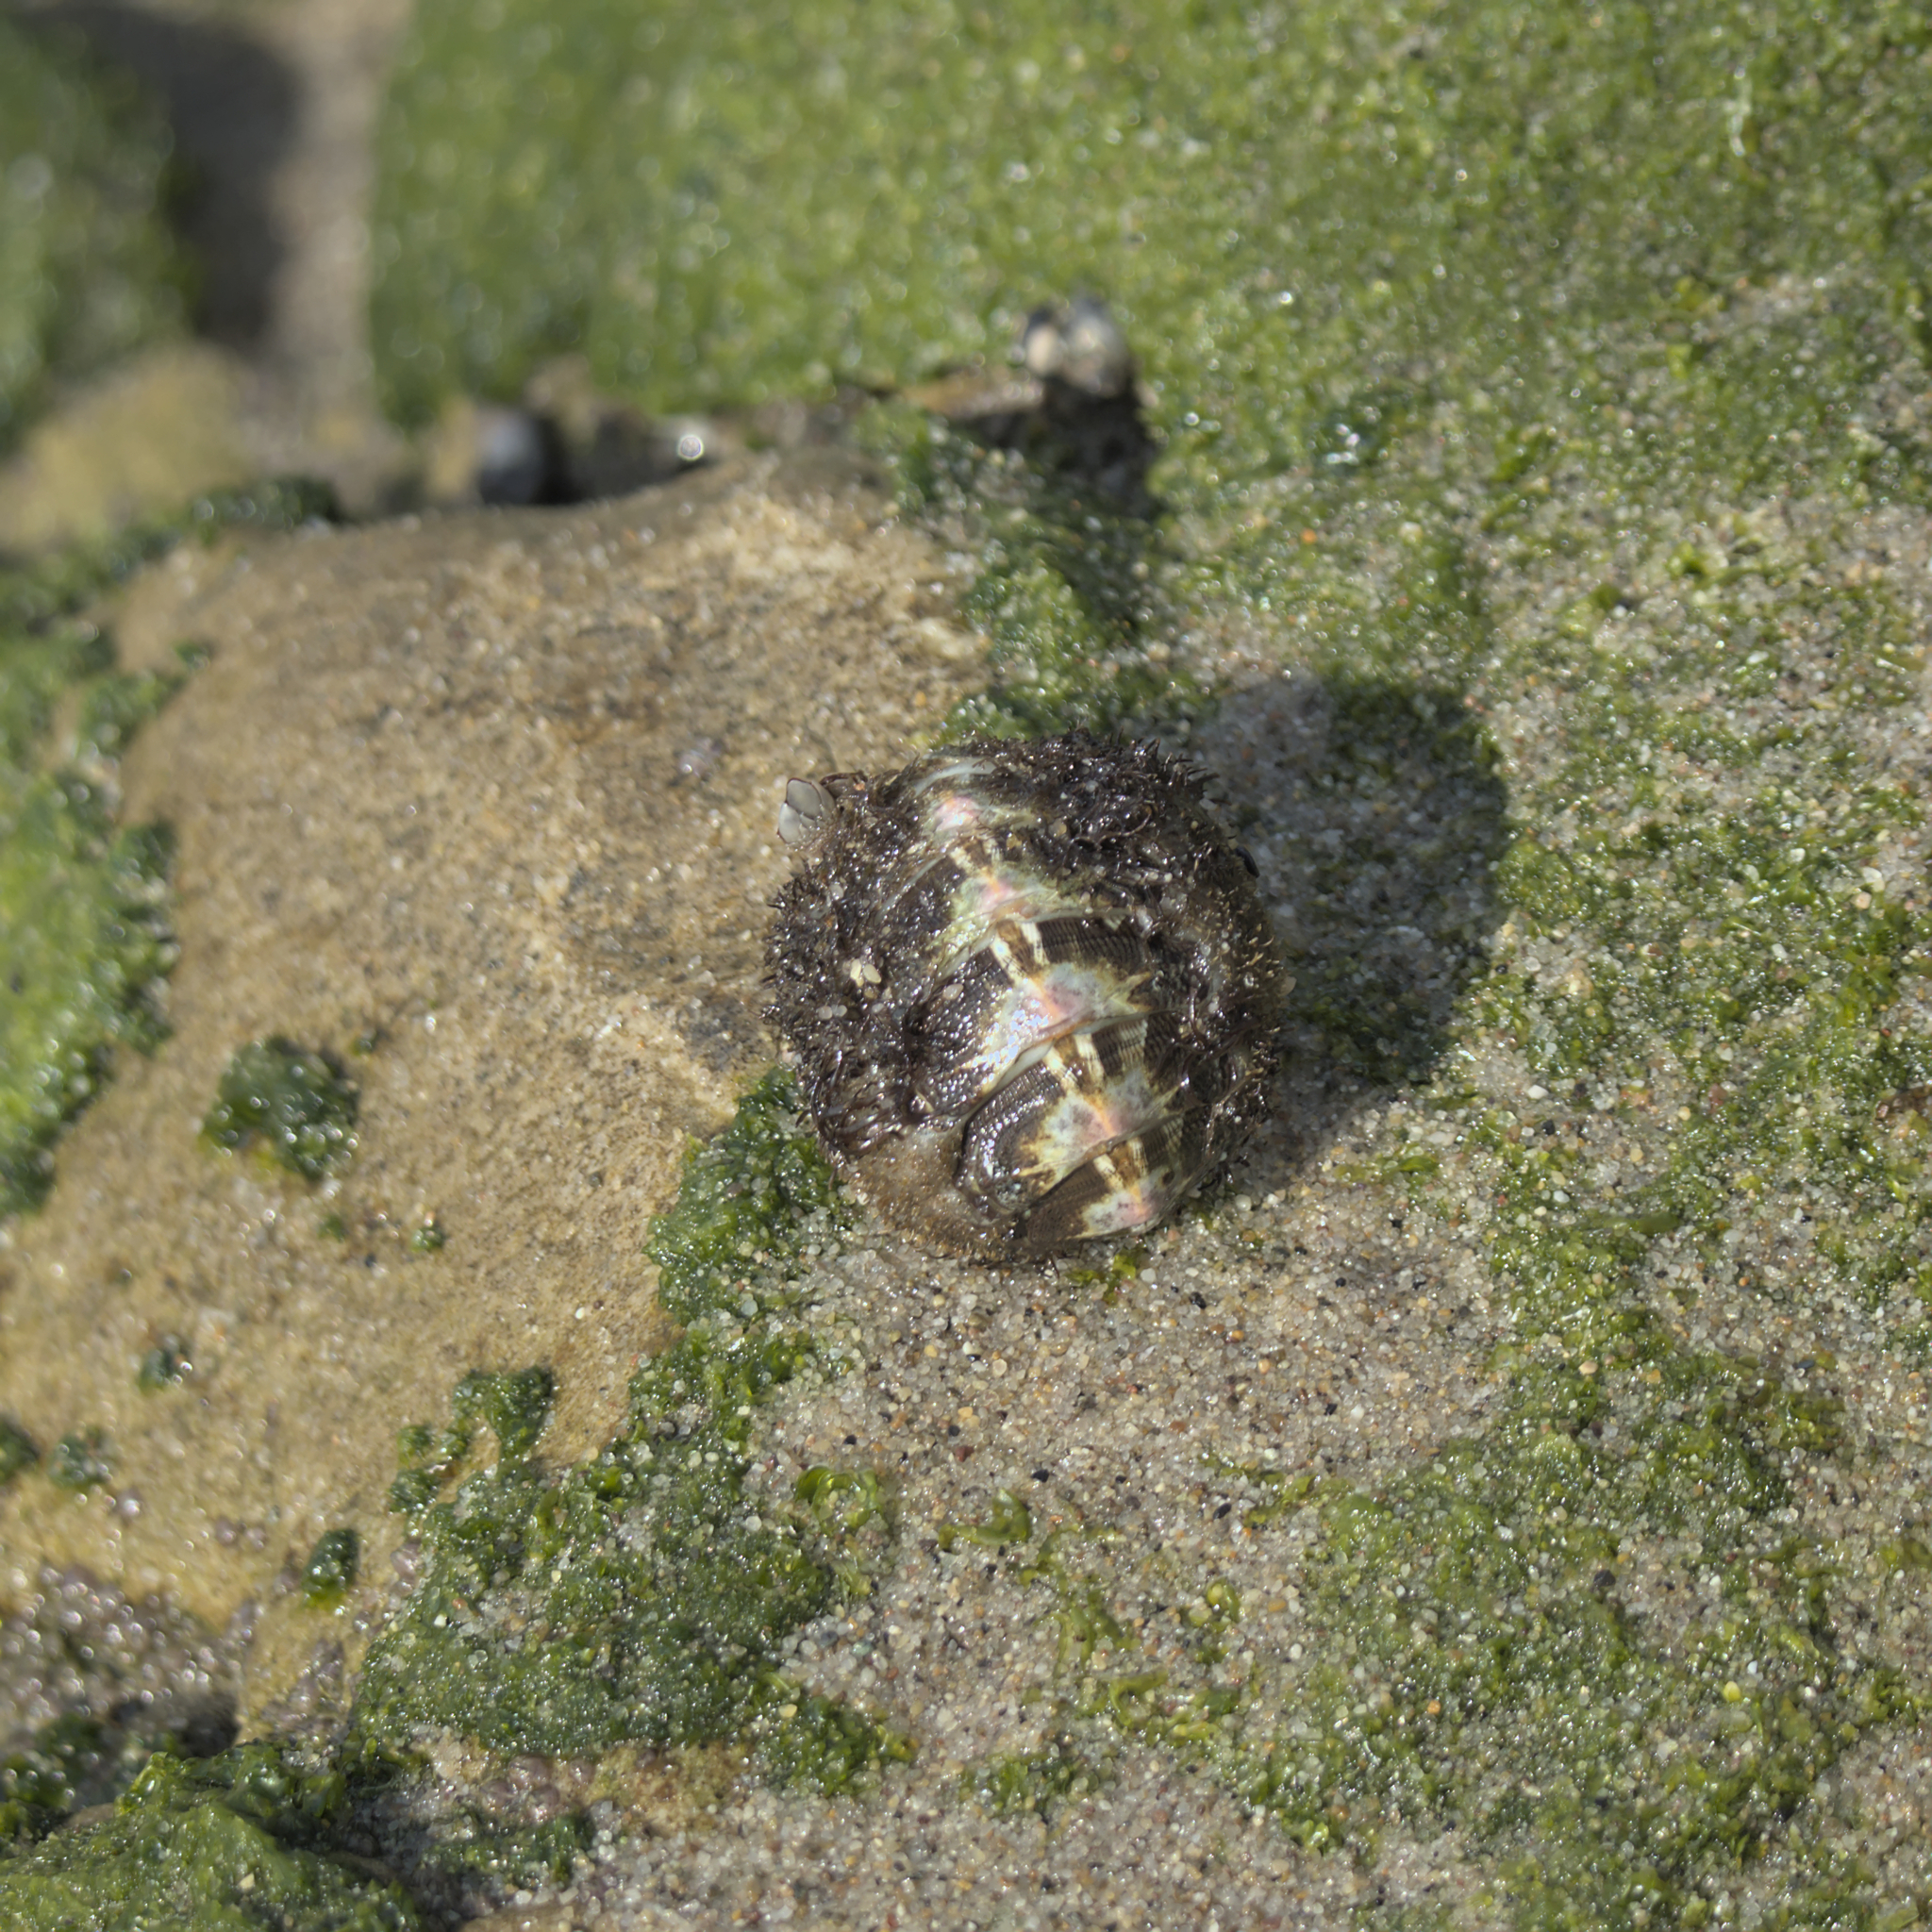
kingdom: Animalia
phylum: Mollusca
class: Polyplacophora
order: Chitonida
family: Mopaliidae
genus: Mopalia
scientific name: Mopalia muscosa
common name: Mossy chiton
